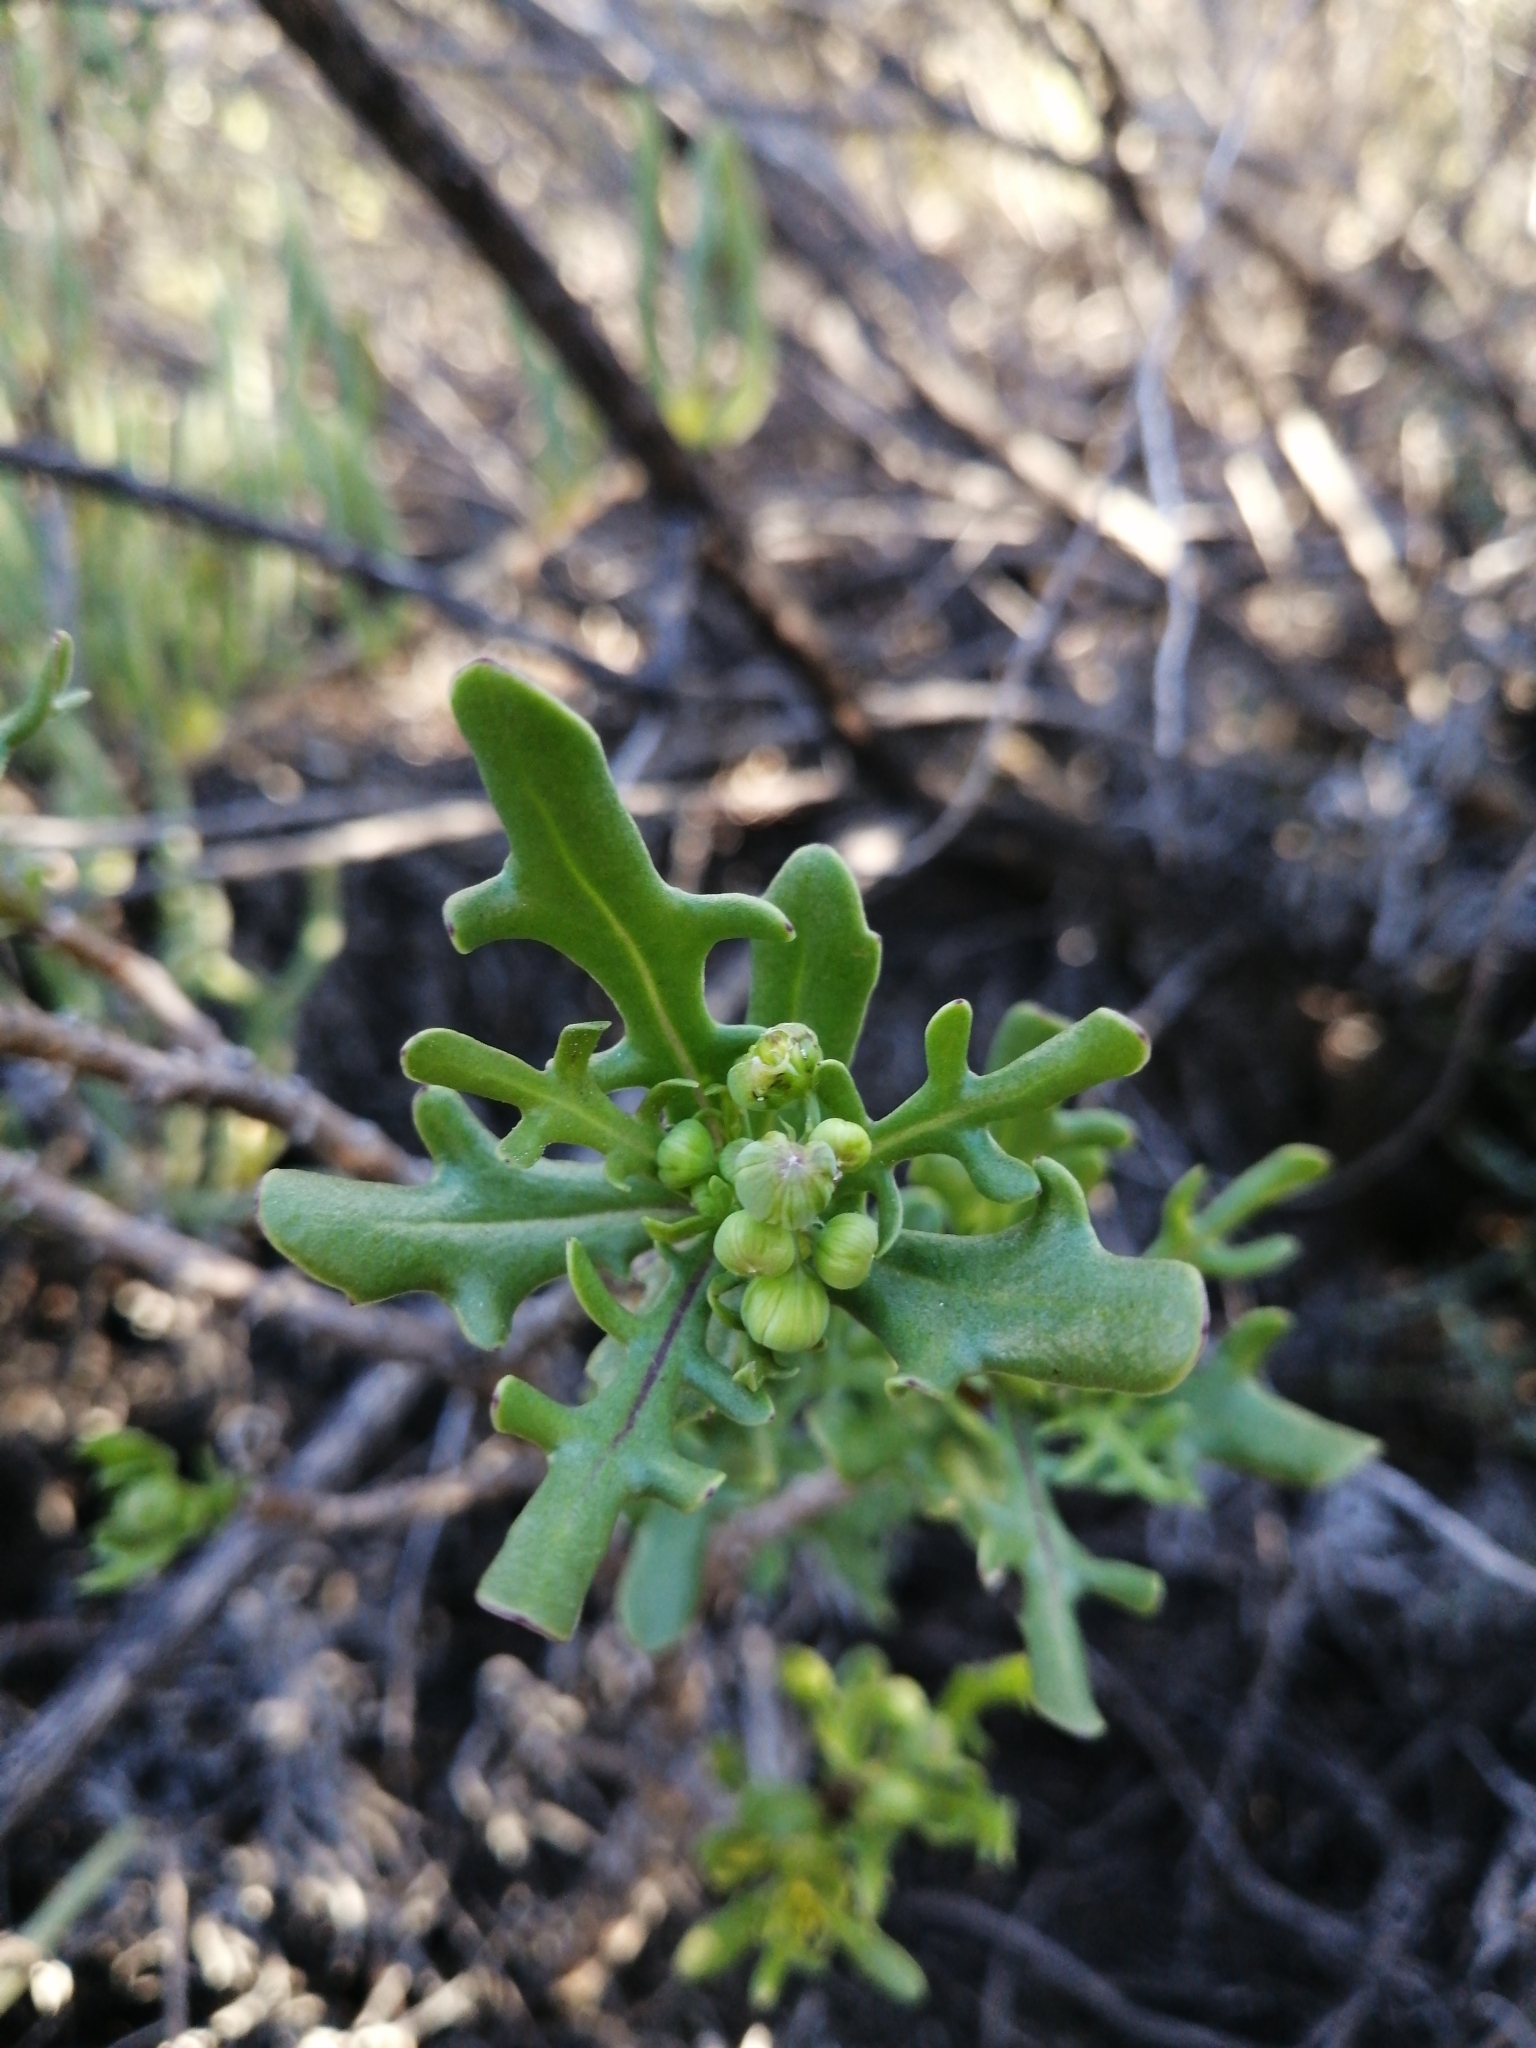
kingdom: Plantae
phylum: Tracheophyta
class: Magnoliopsida
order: Asterales
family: Asteraceae
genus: Othonna
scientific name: Othonna retrofracta
